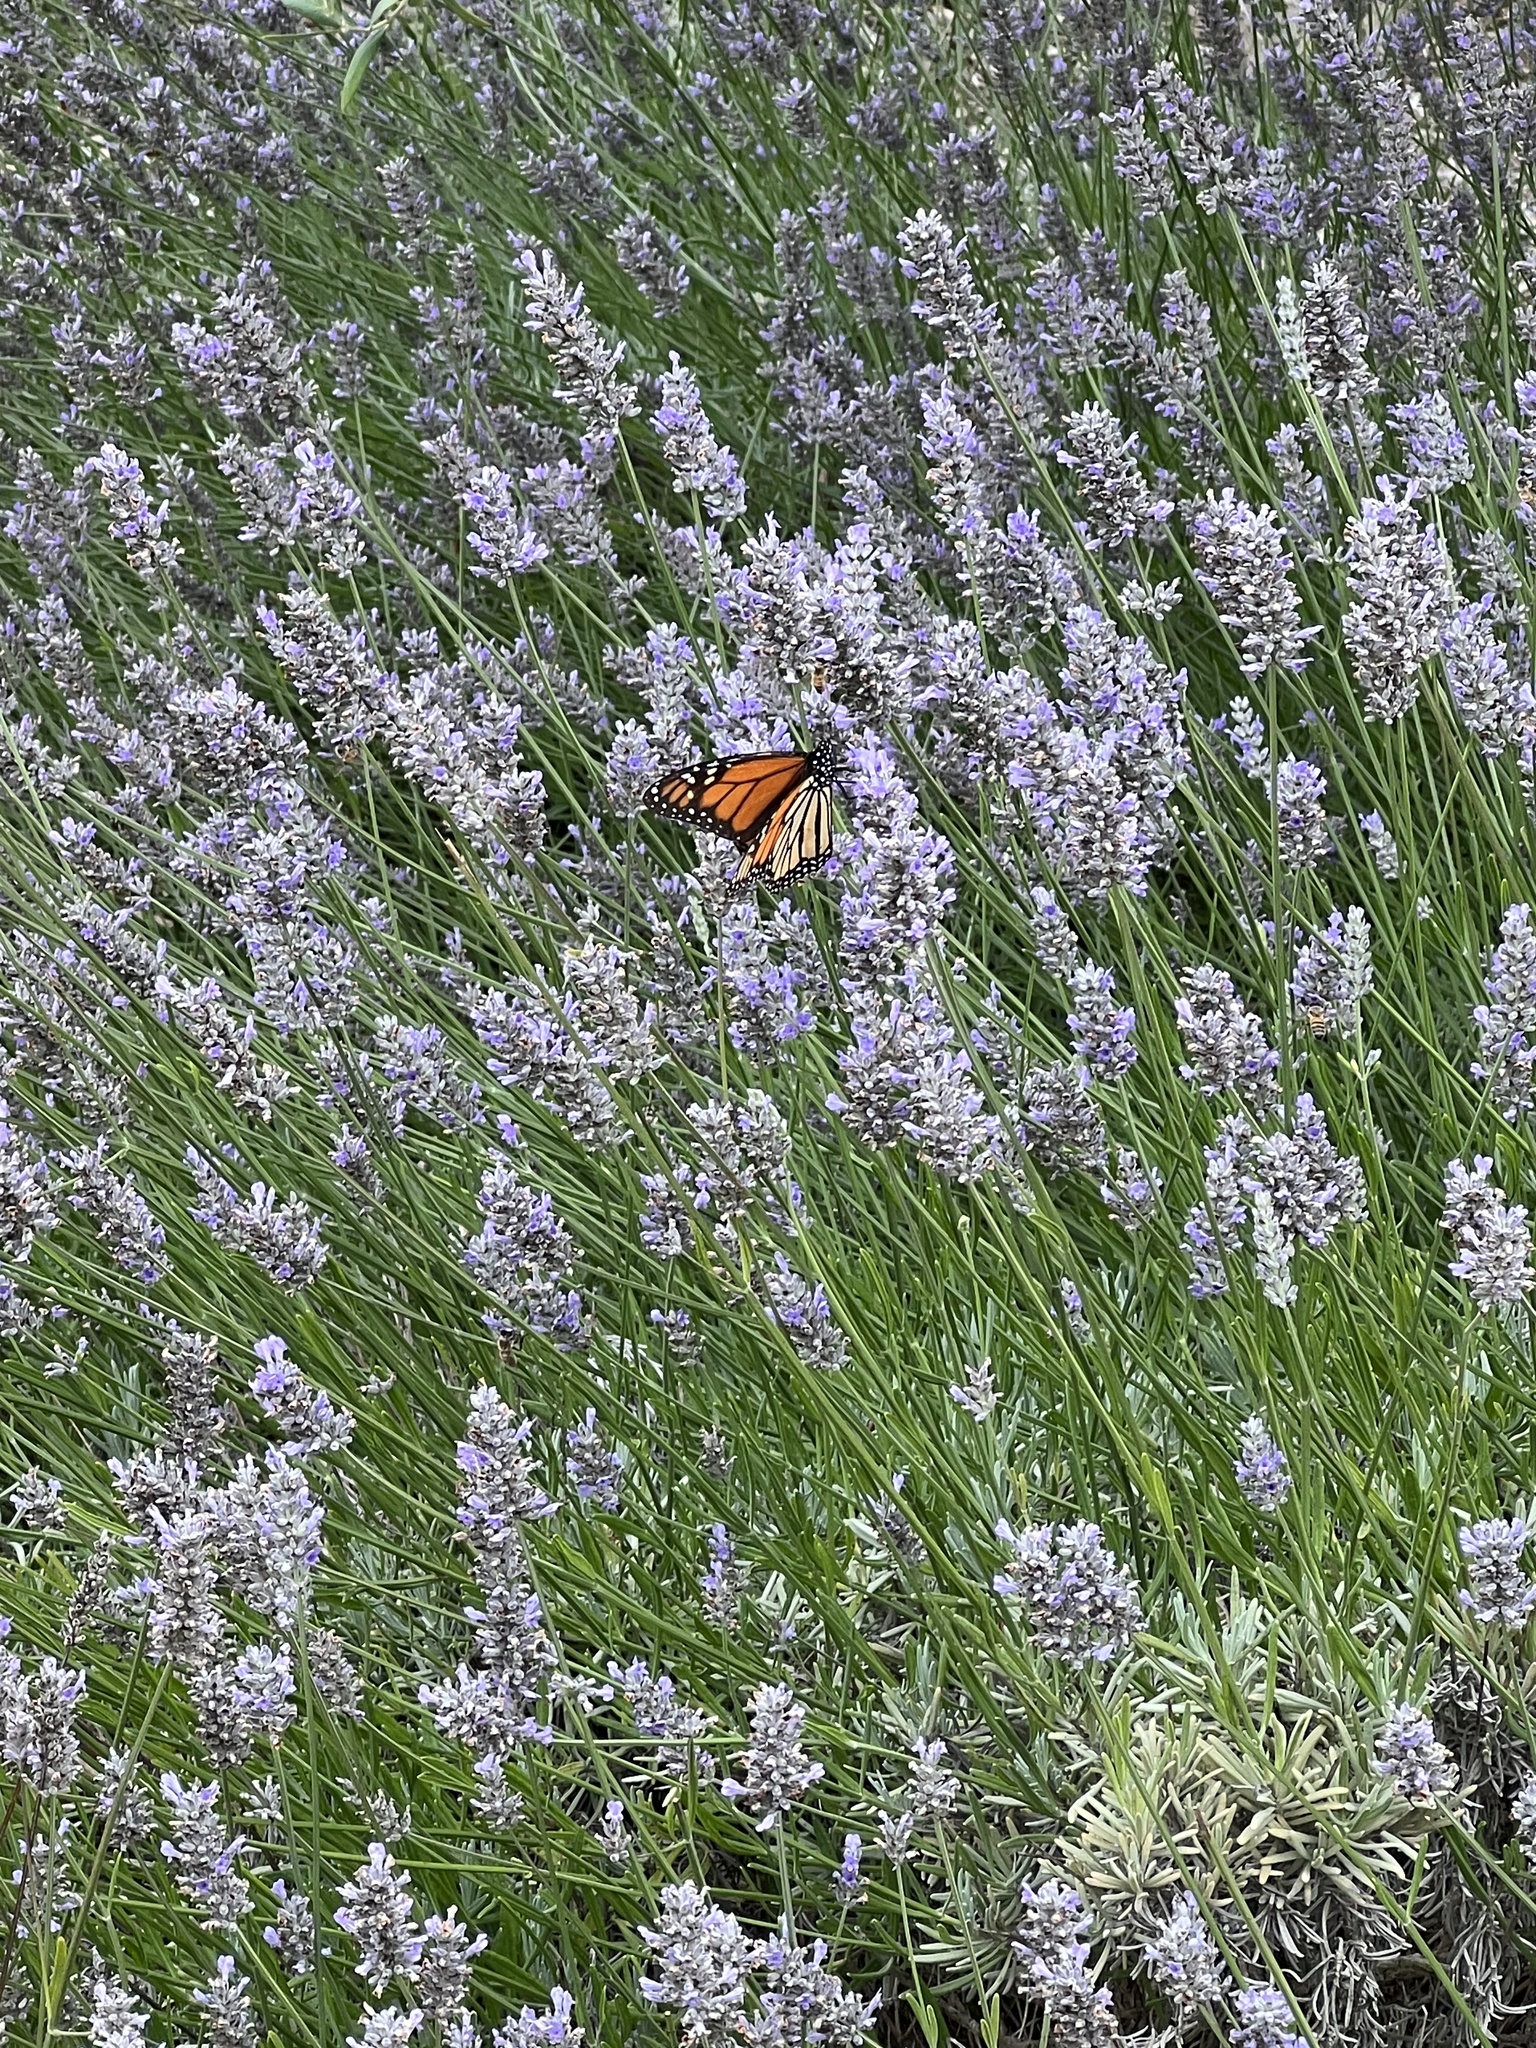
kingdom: Animalia
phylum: Arthropoda
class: Insecta
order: Lepidoptera
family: Nymphalidae
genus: Danaus
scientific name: Danaus plexippus
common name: Monarch
